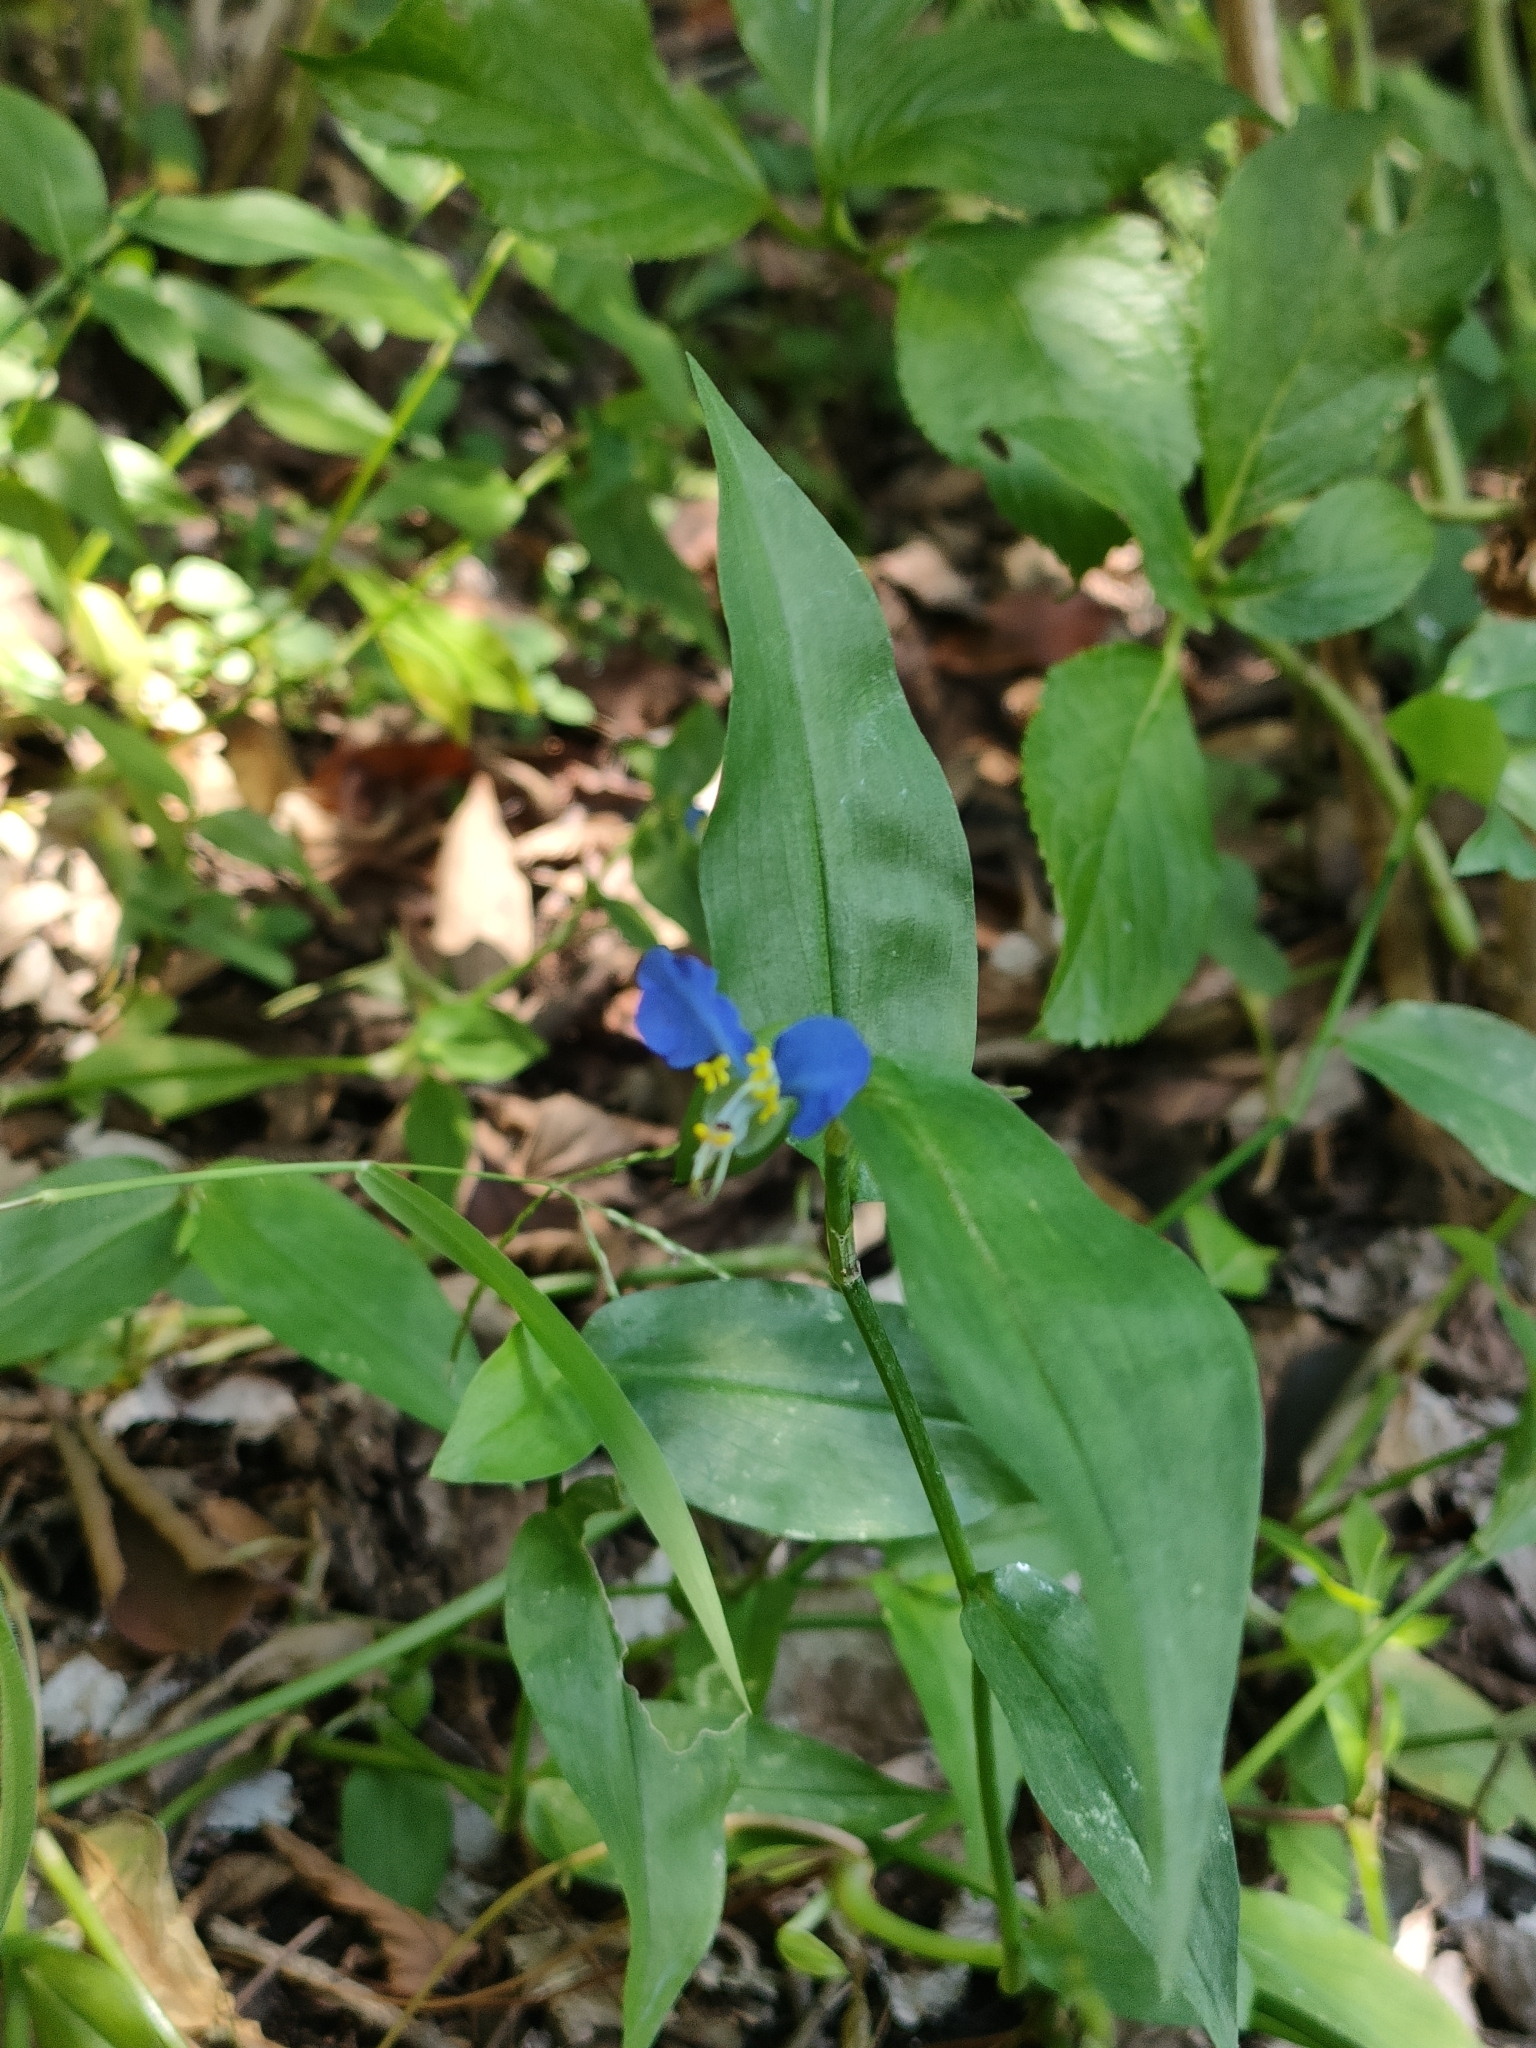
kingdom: Plantae
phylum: Tracheophyta
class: Liliopsida
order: Commelinales
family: Commelinaceae
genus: Commelina
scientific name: Commelina communis
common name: Asiatic dayflower
